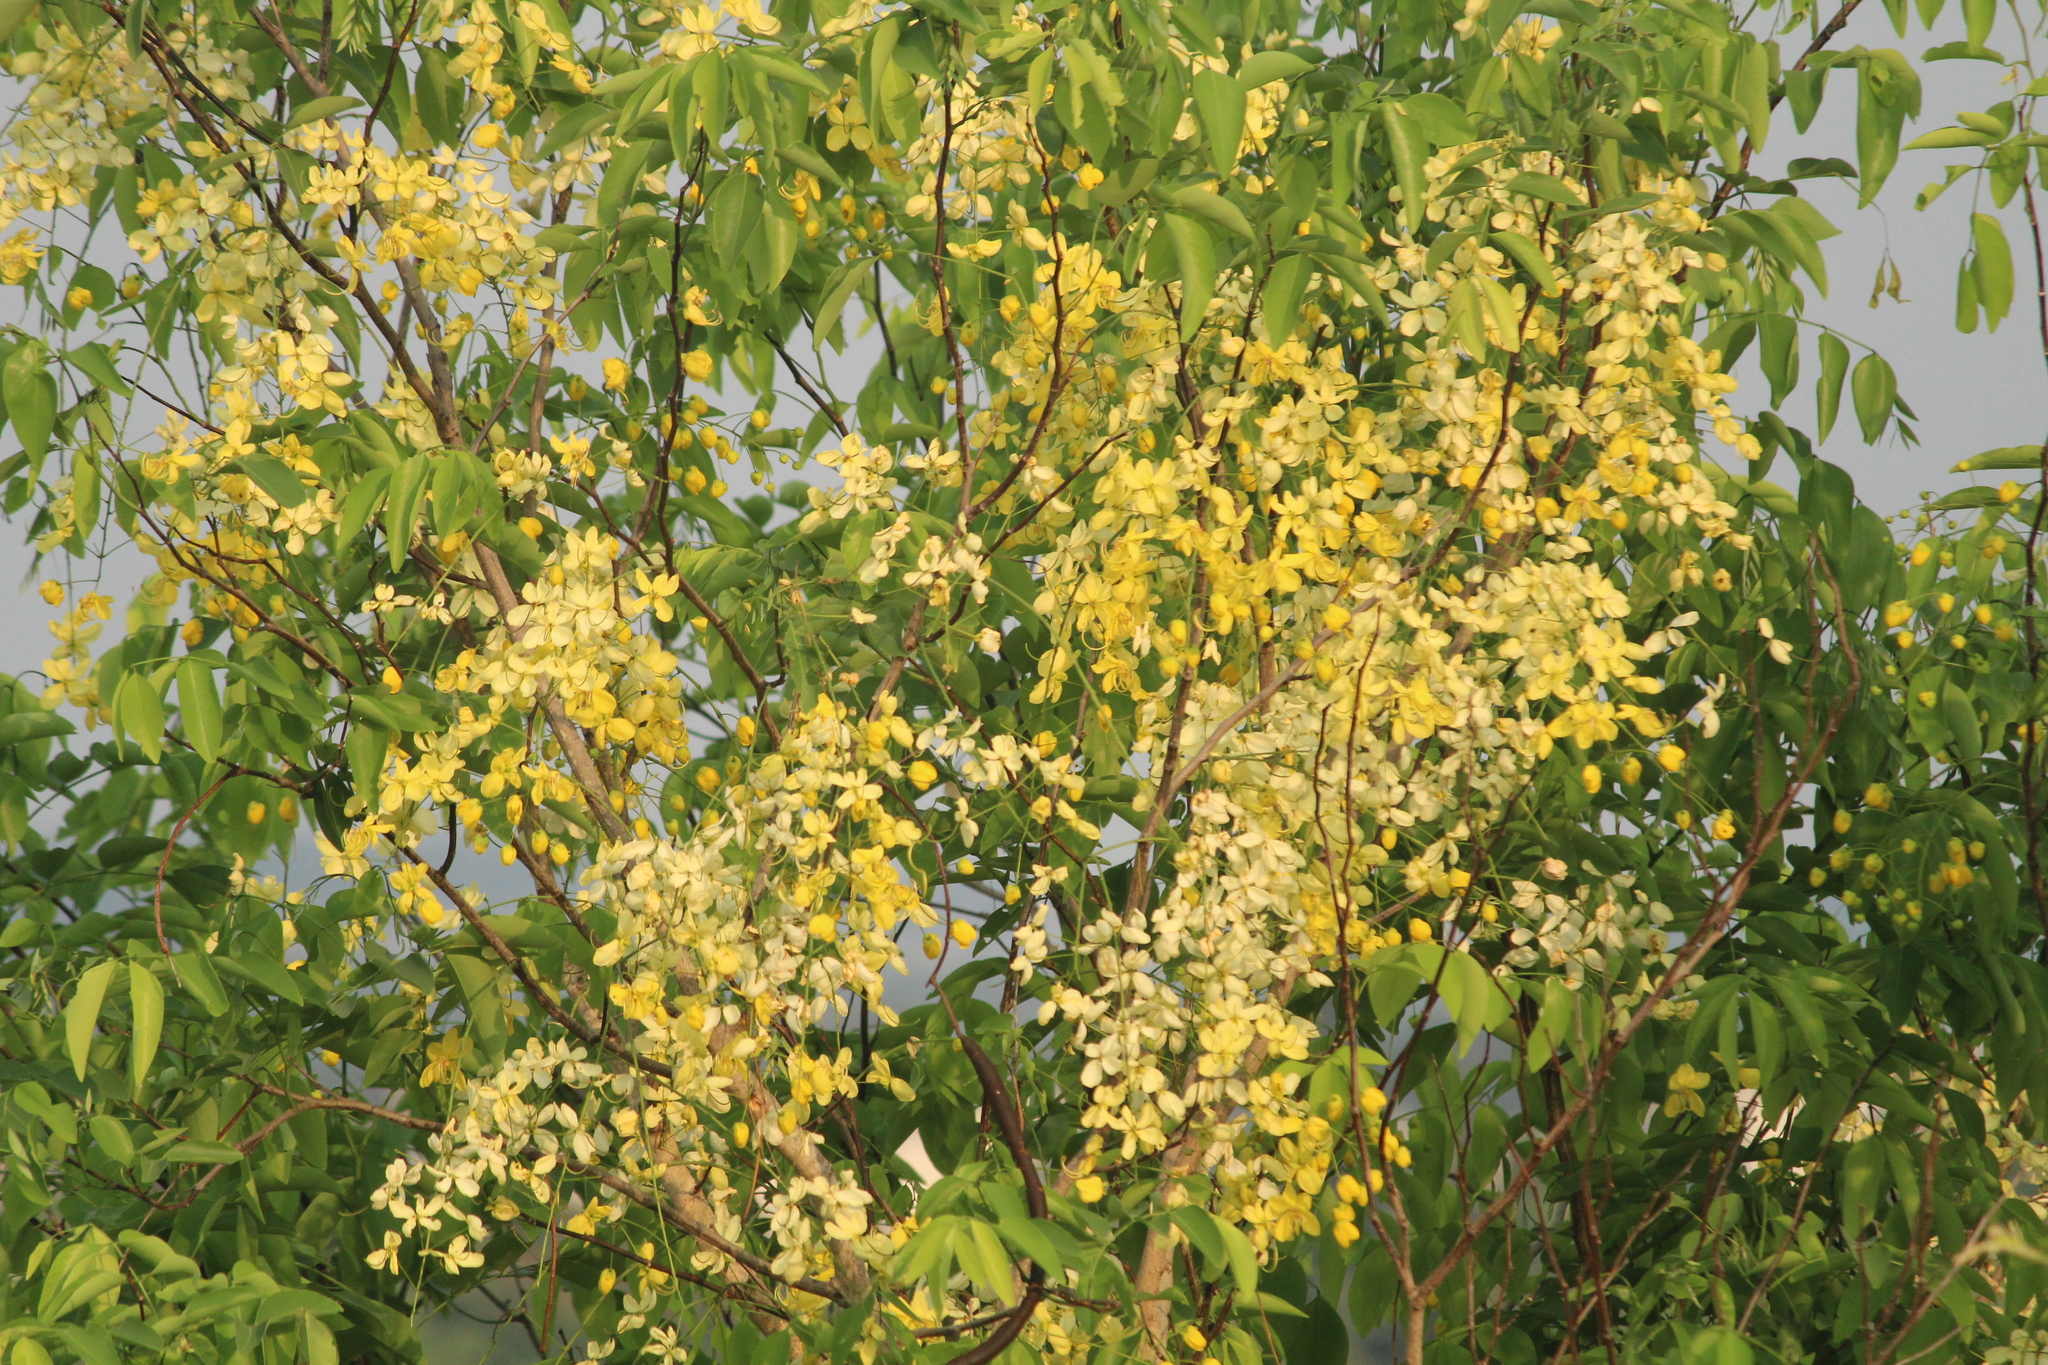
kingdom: Plantae
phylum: Tracheophyta
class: Magnoliopsida
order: Fabales
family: Fabaceae
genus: Cassia
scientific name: Cassia fistula
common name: Golden shower
